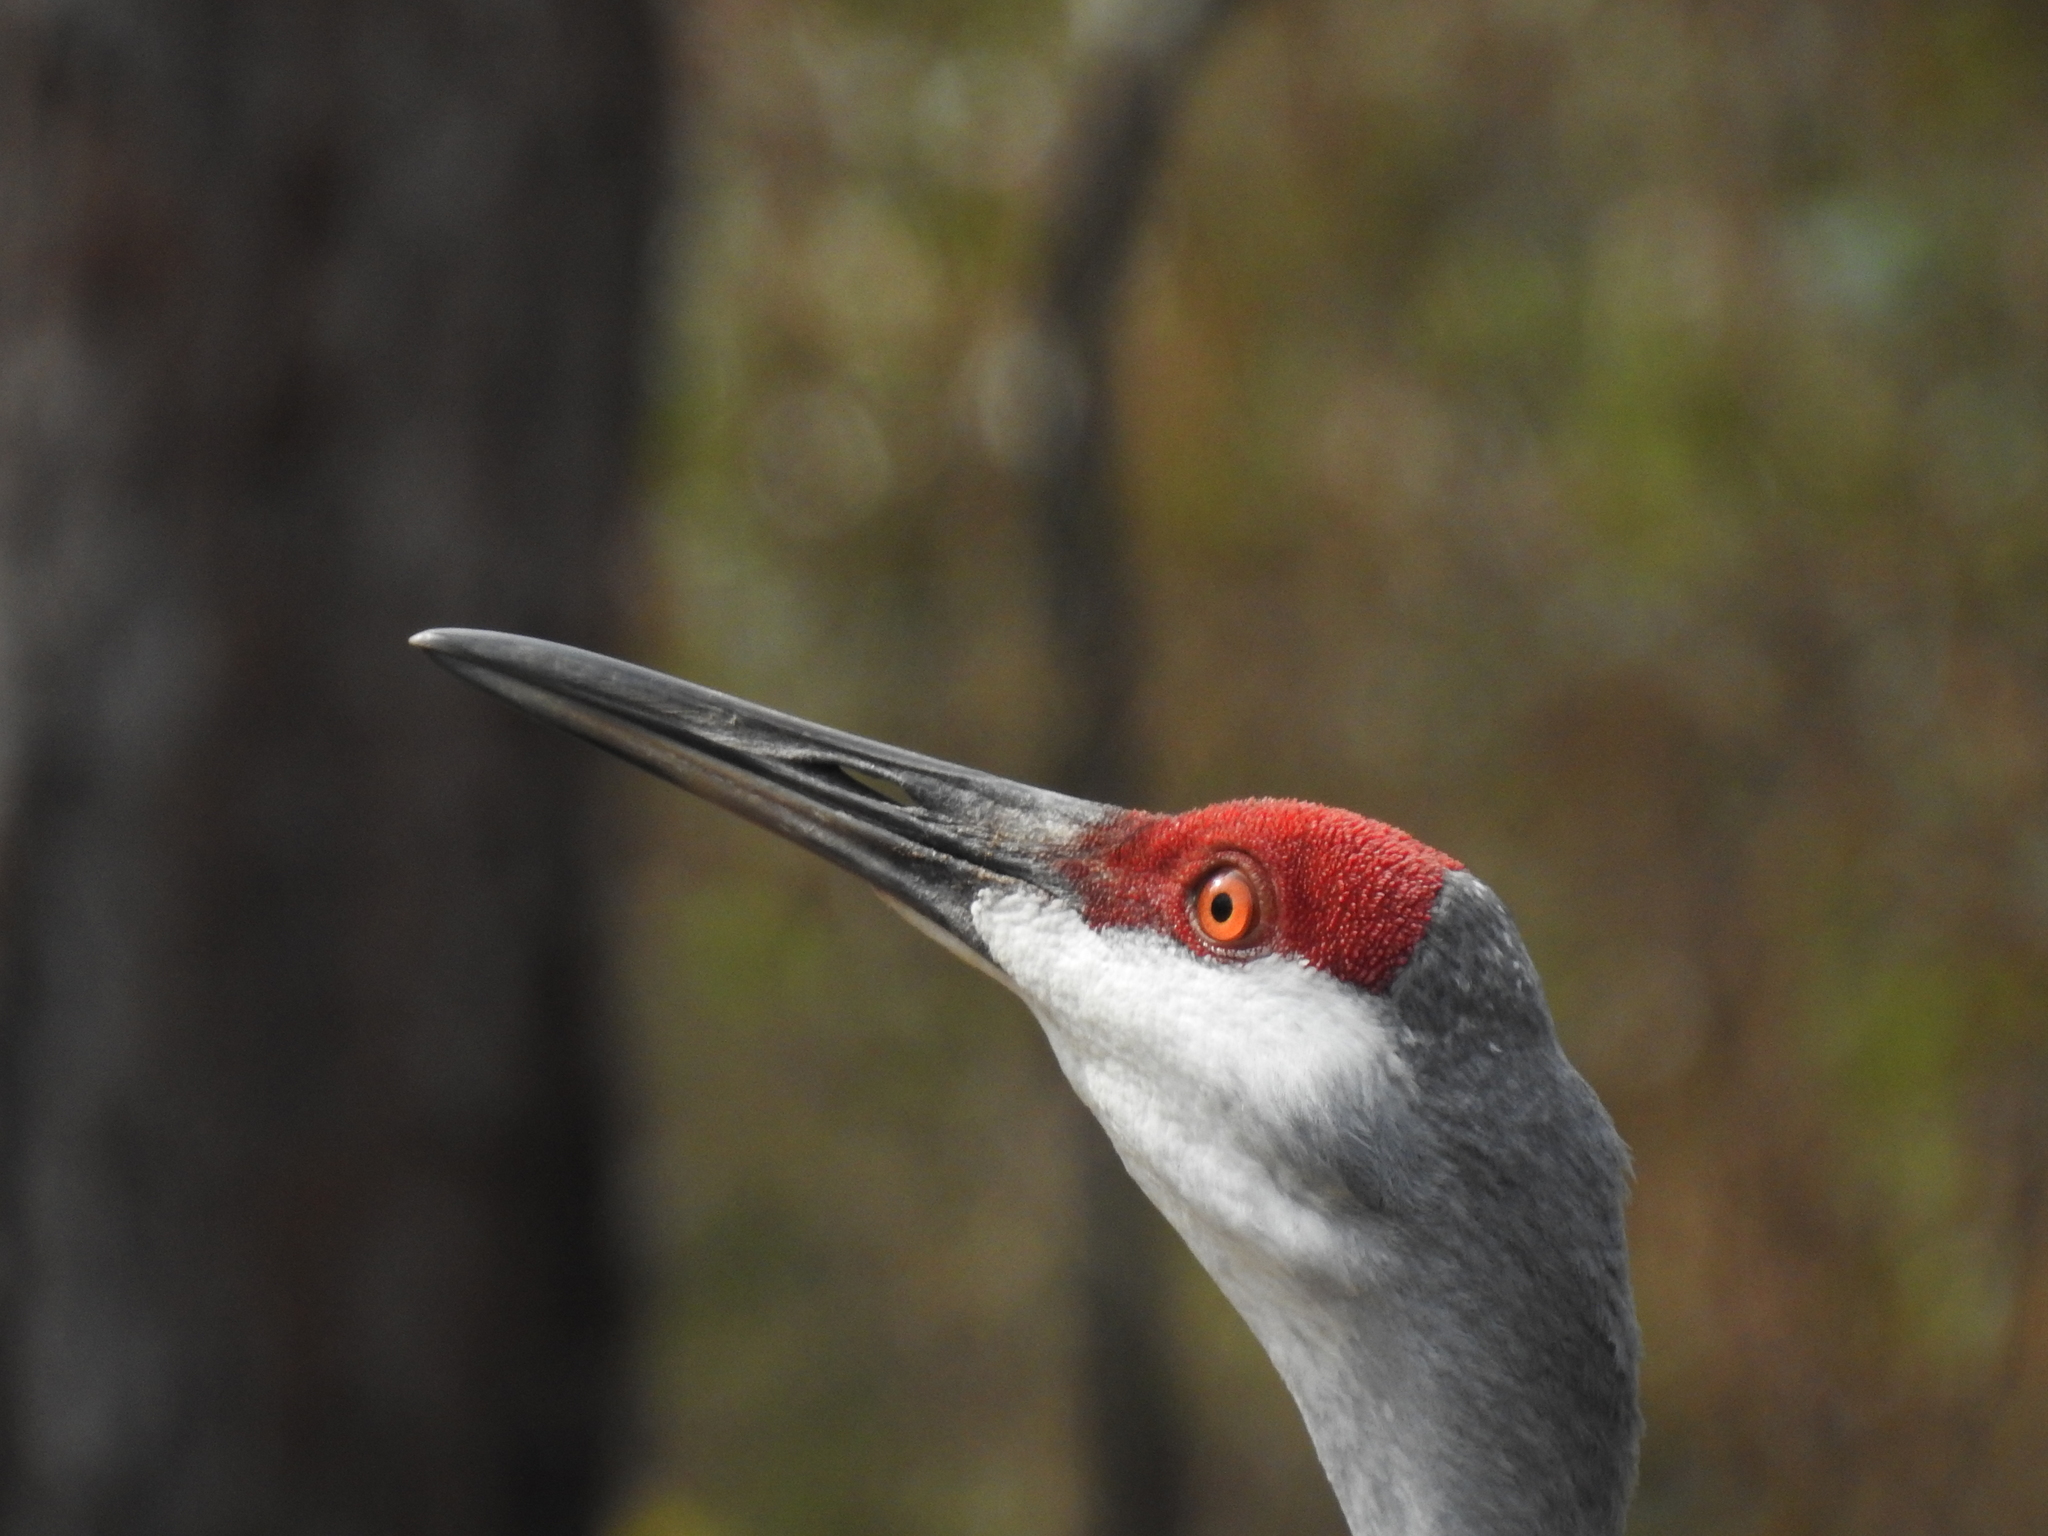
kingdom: Animalia
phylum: Chordata
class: Aves
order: Gruiformes
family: Gruidae
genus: Grus
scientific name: Grus canadensis
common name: Sandhill crane
